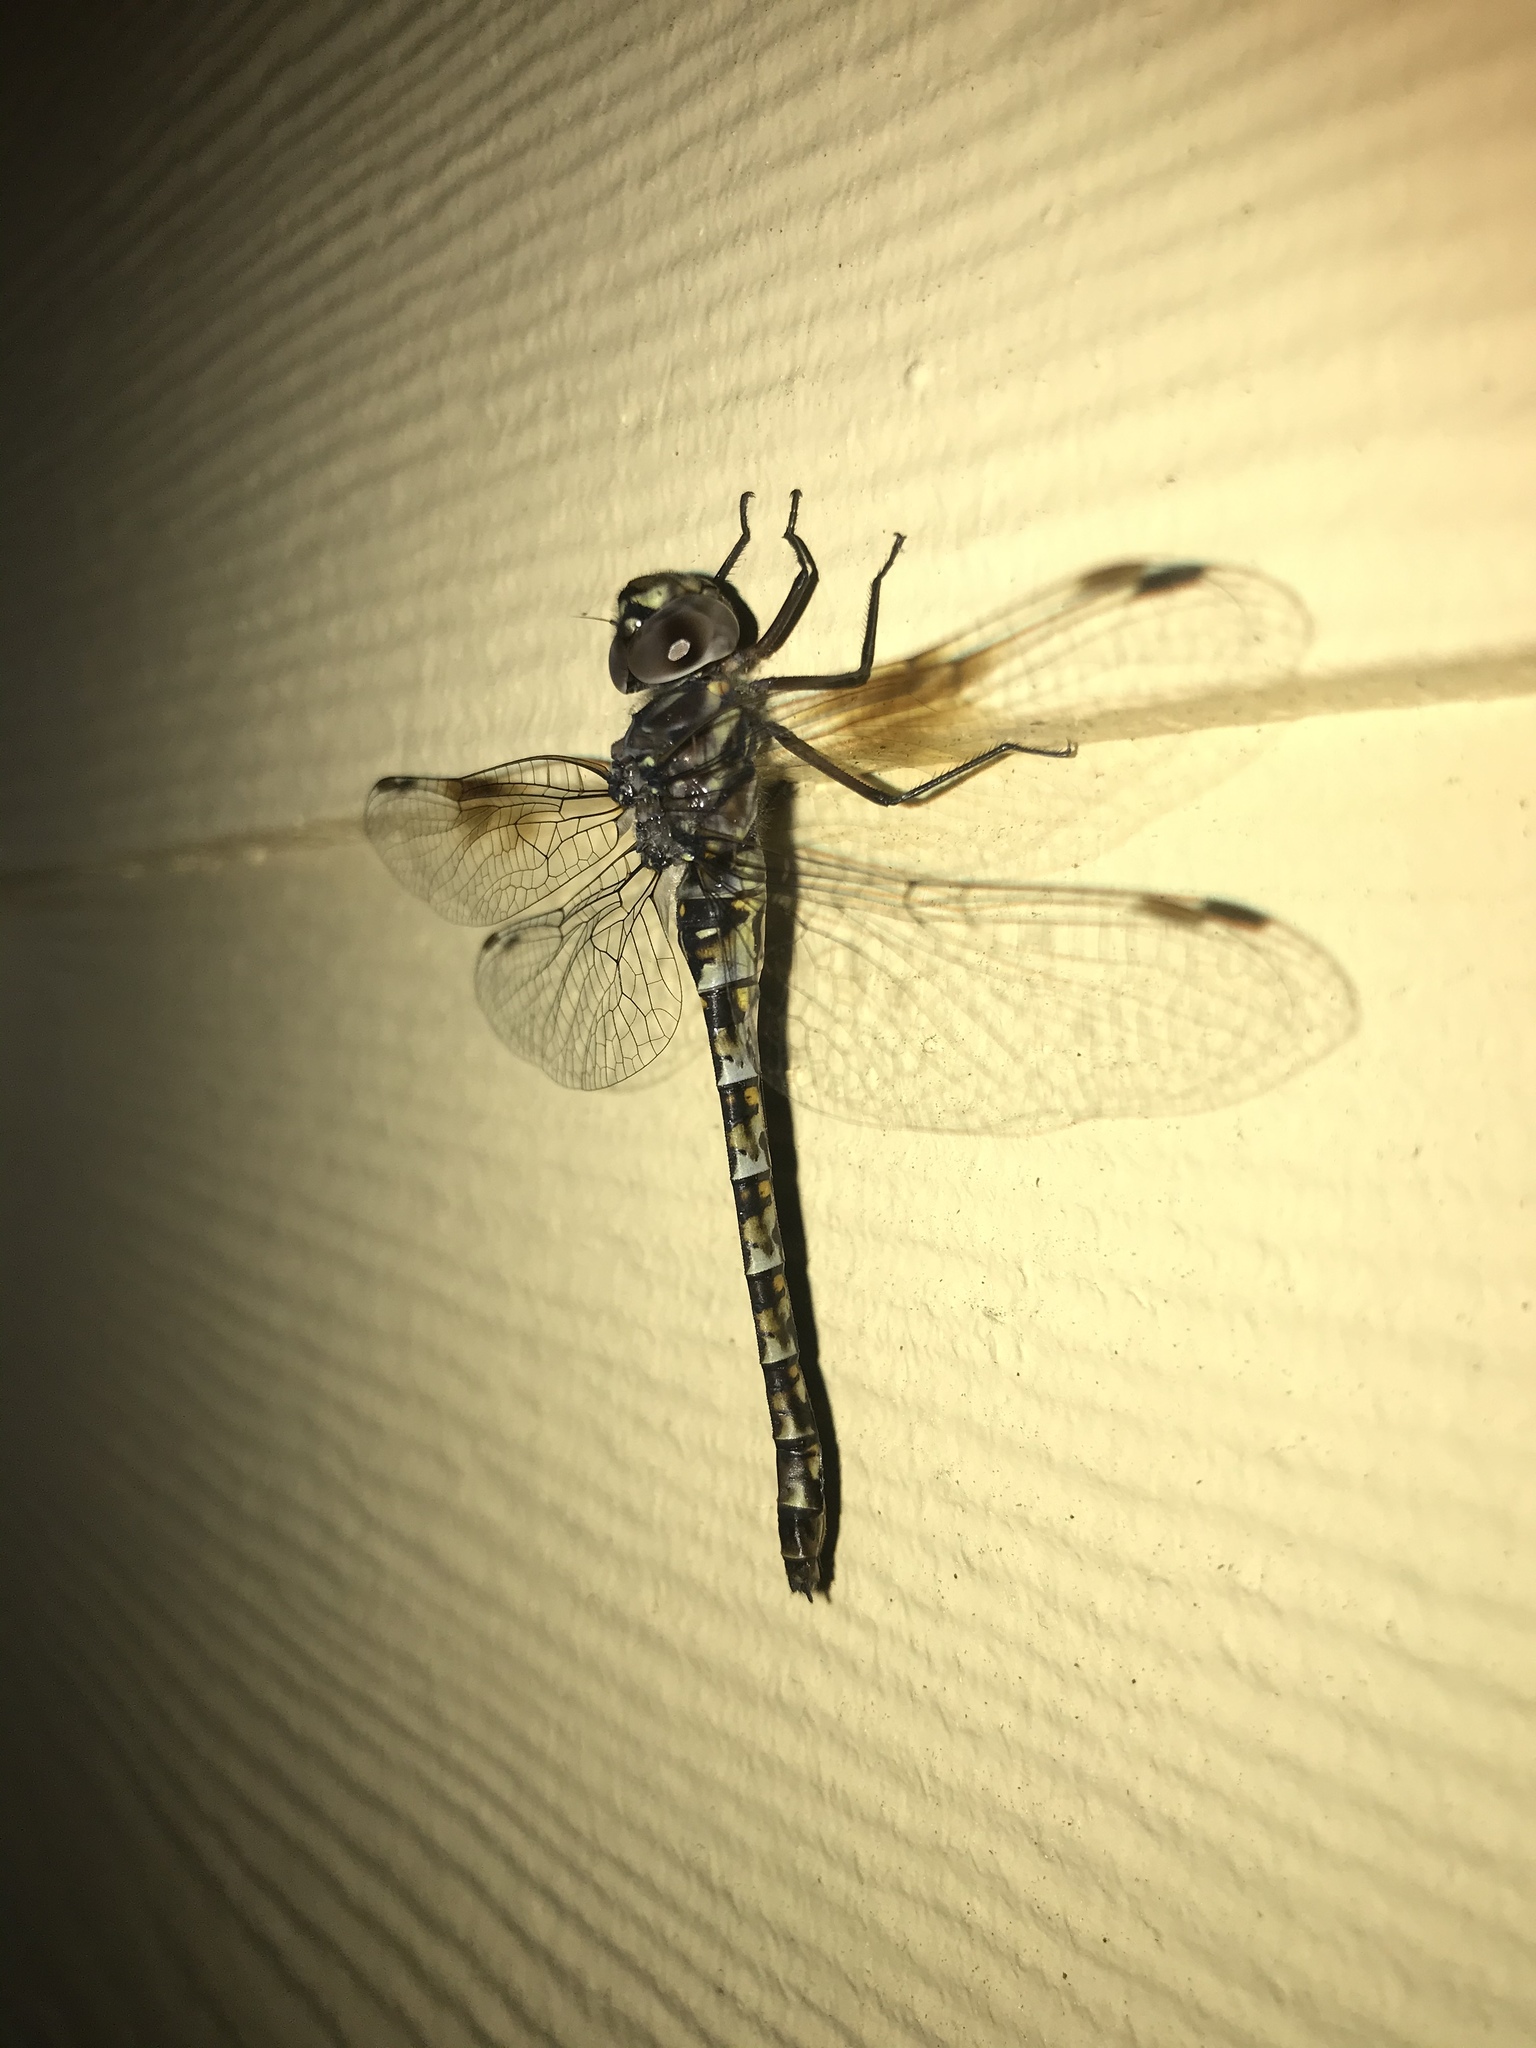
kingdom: Animalia
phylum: Arthropoda
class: Insecta
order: Odonata
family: Aeshnidae
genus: Gomphaeschna
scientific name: Gomphaeschna antilope
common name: Taper-tailed darner
